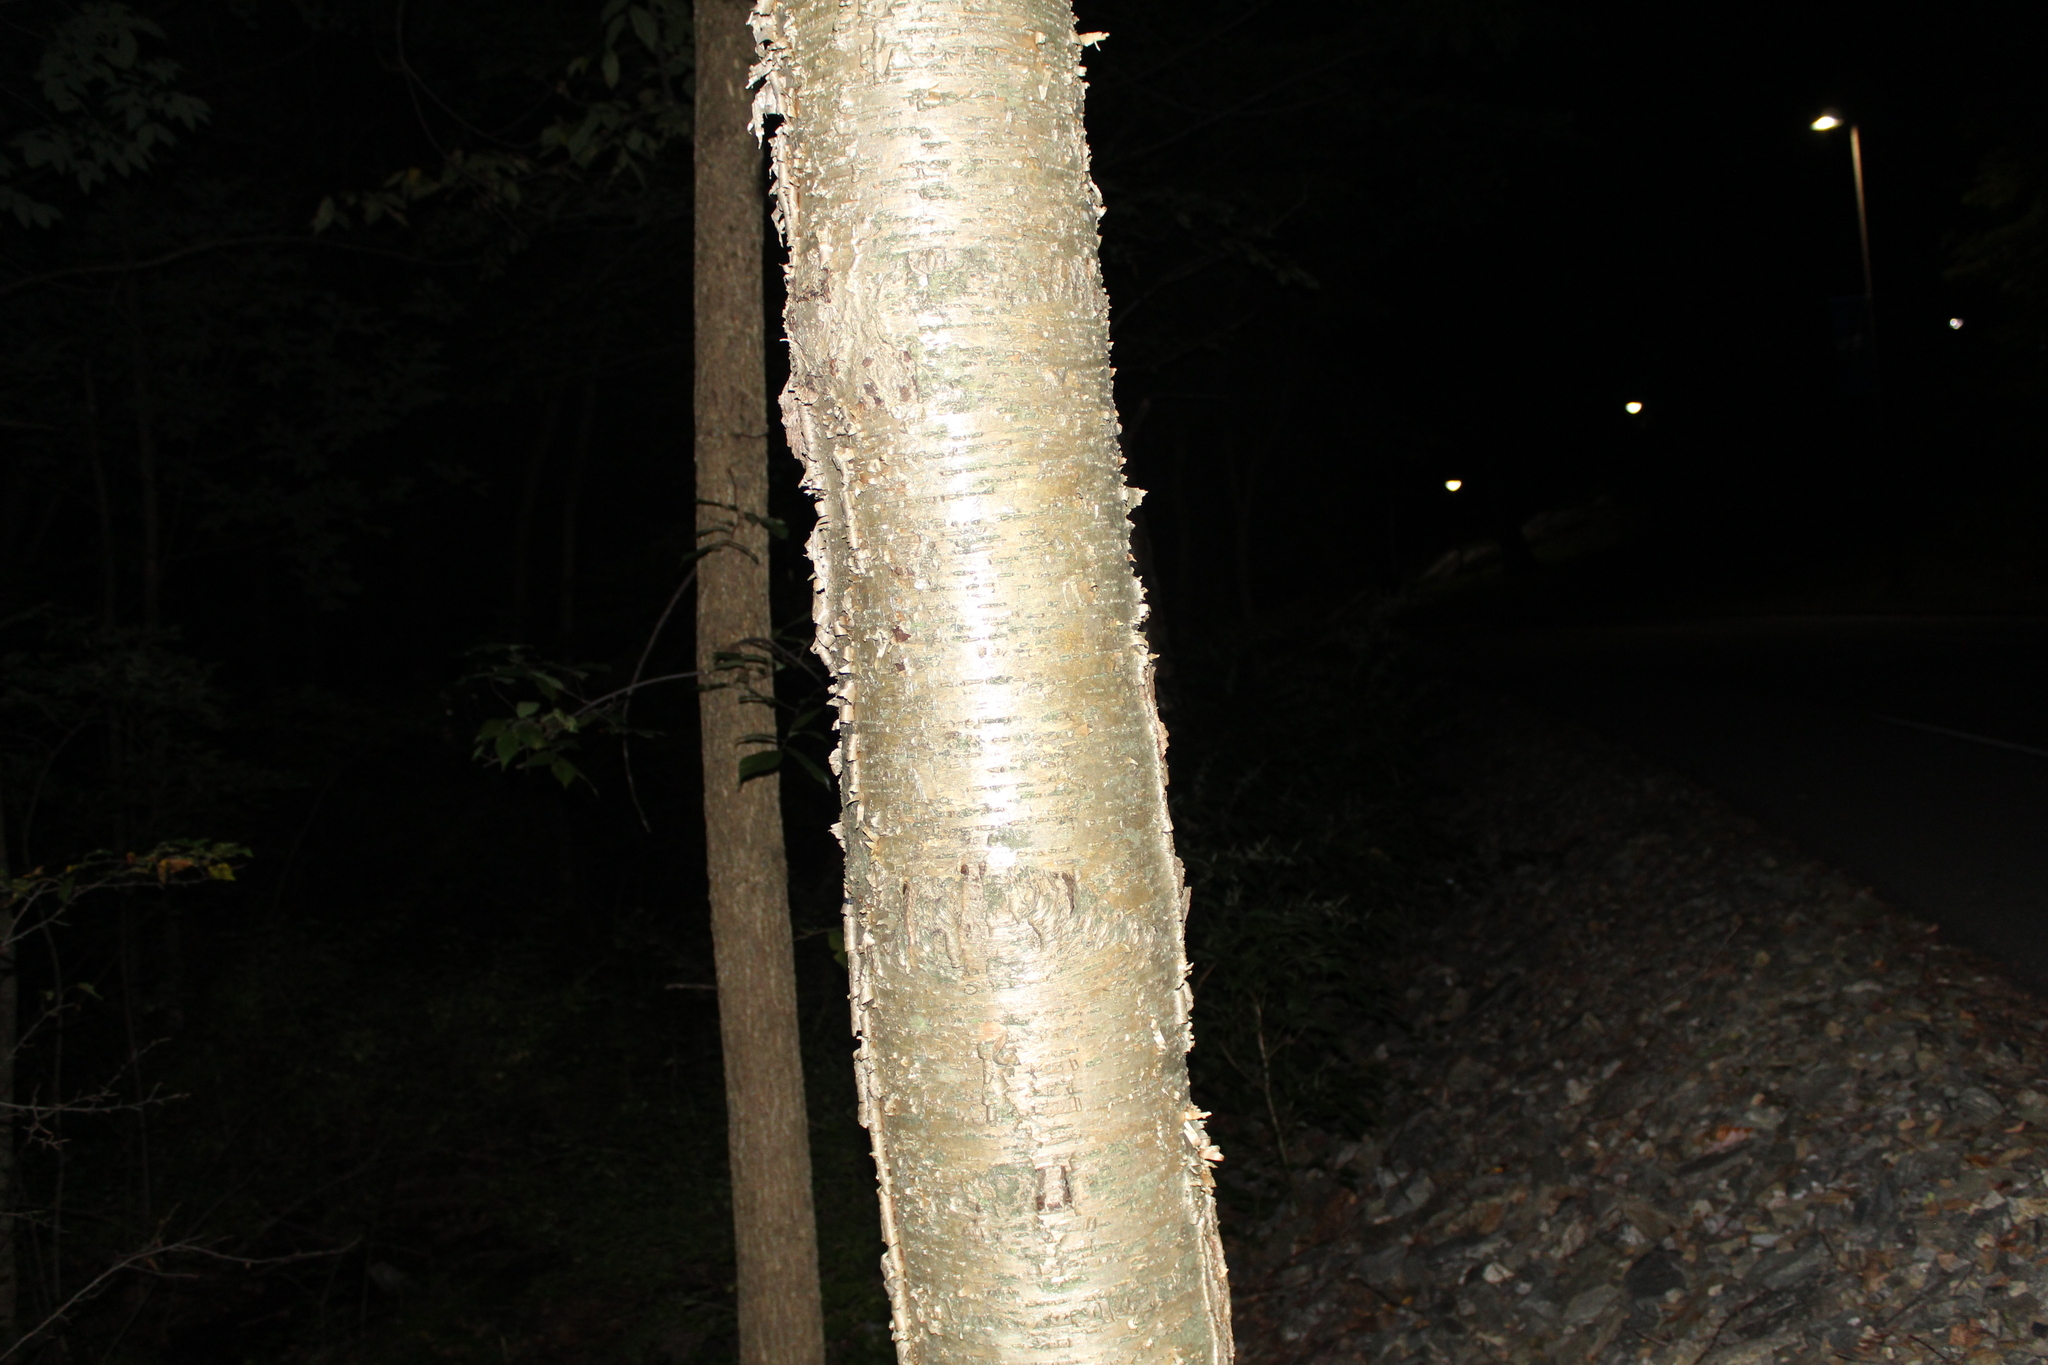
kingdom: Plantae
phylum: Tracheophyta
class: Magnoliopsida
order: Fagales
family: Betulaceae
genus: Betula
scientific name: Betula alleghaniensis
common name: Yellow birch
